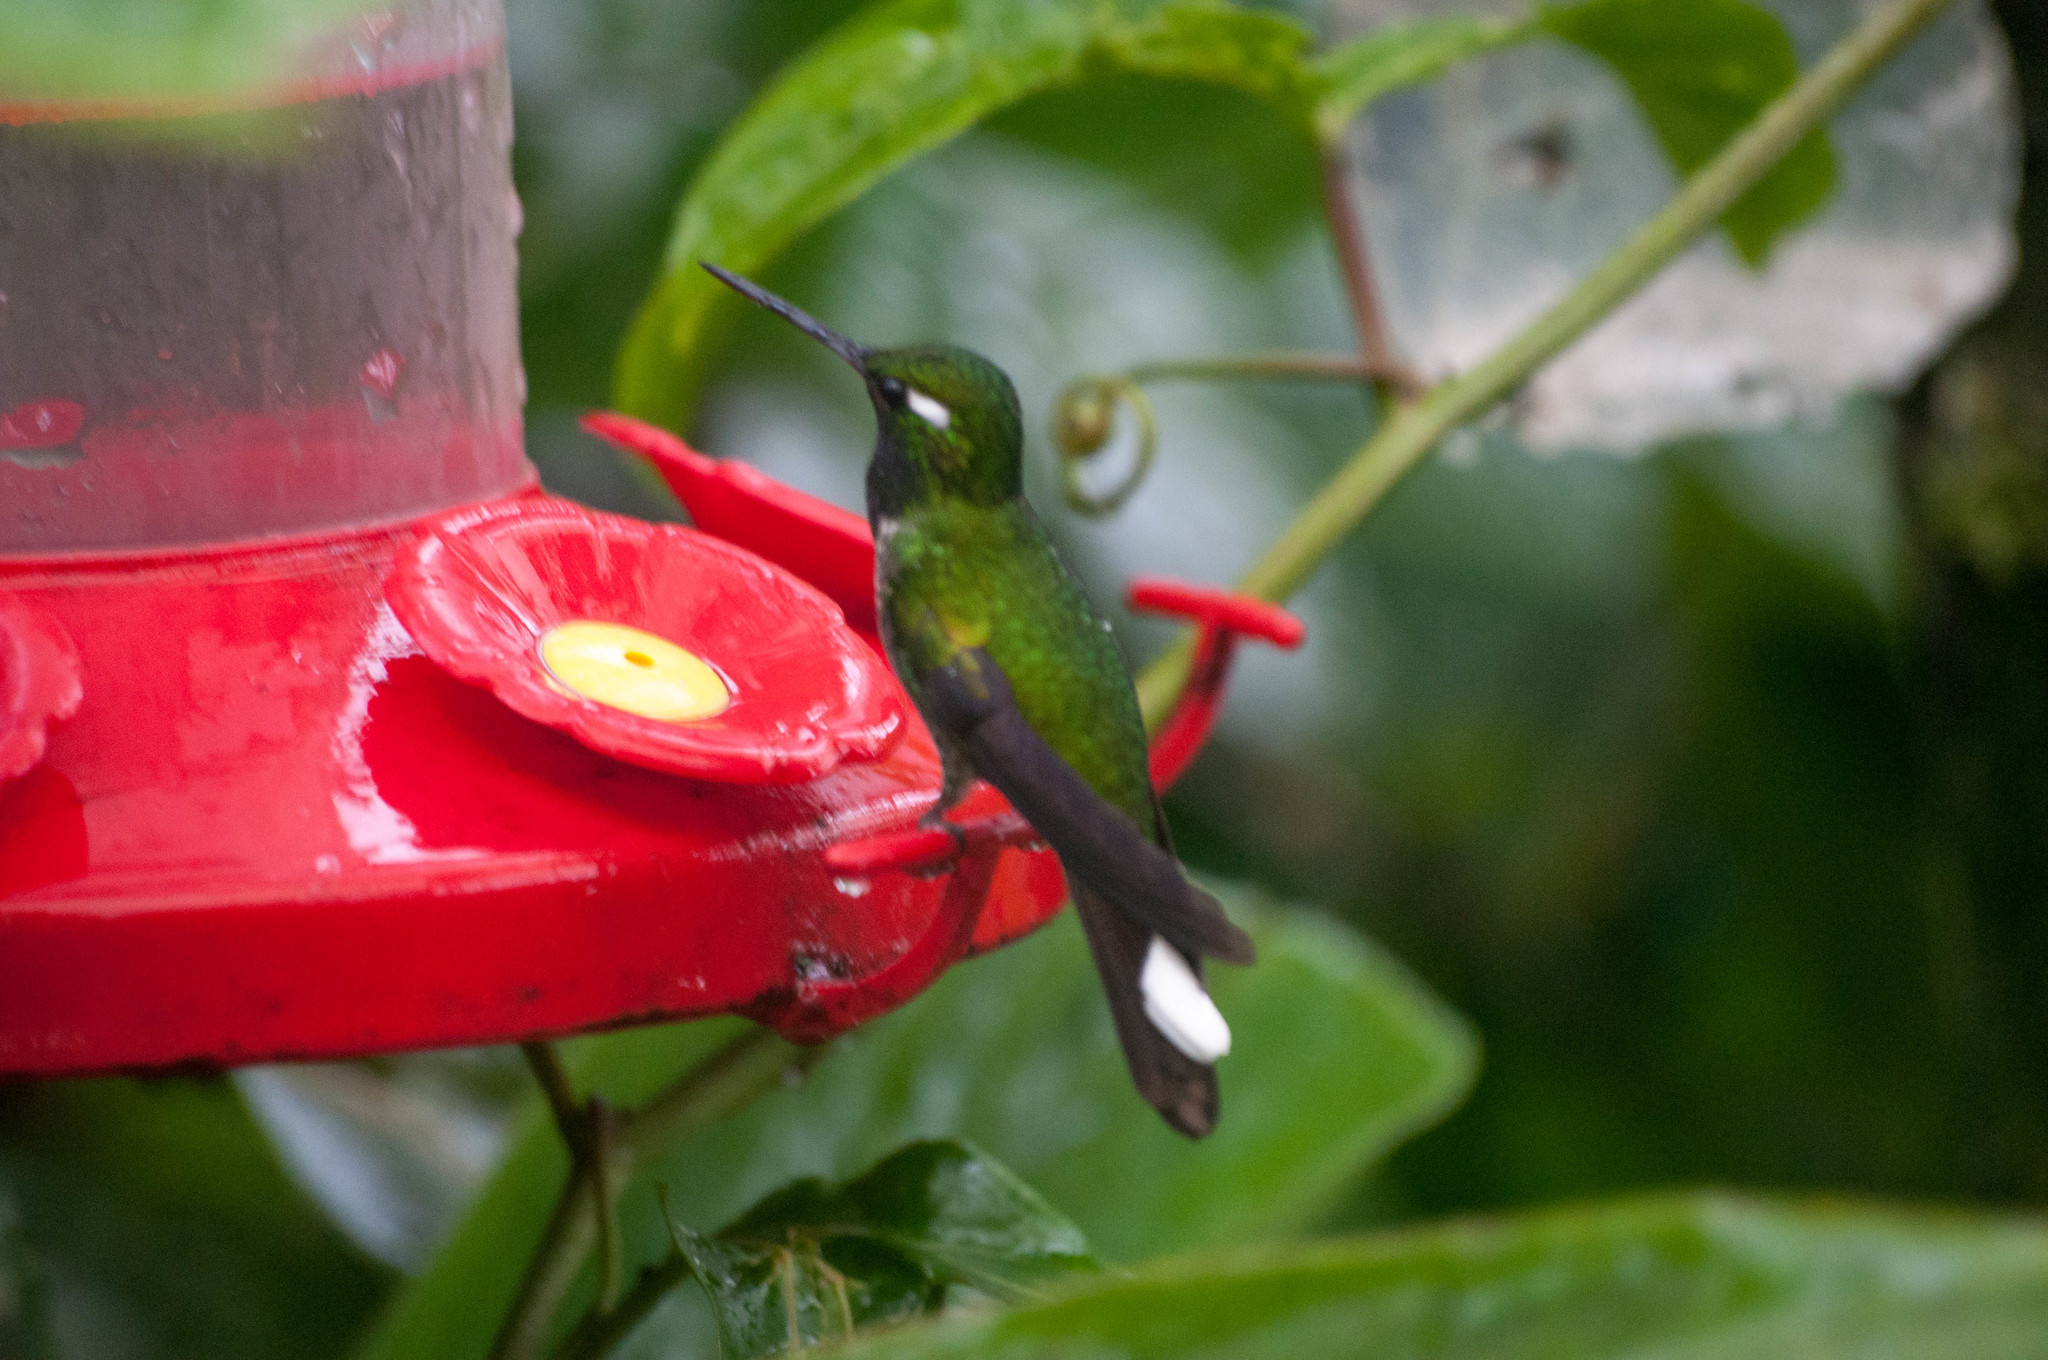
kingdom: Animalia
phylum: Chordata
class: Aves
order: Apodiformes
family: Trochilidae
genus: Urosticte
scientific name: Urosticte benjamini
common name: Purple-bibbed whitetip
